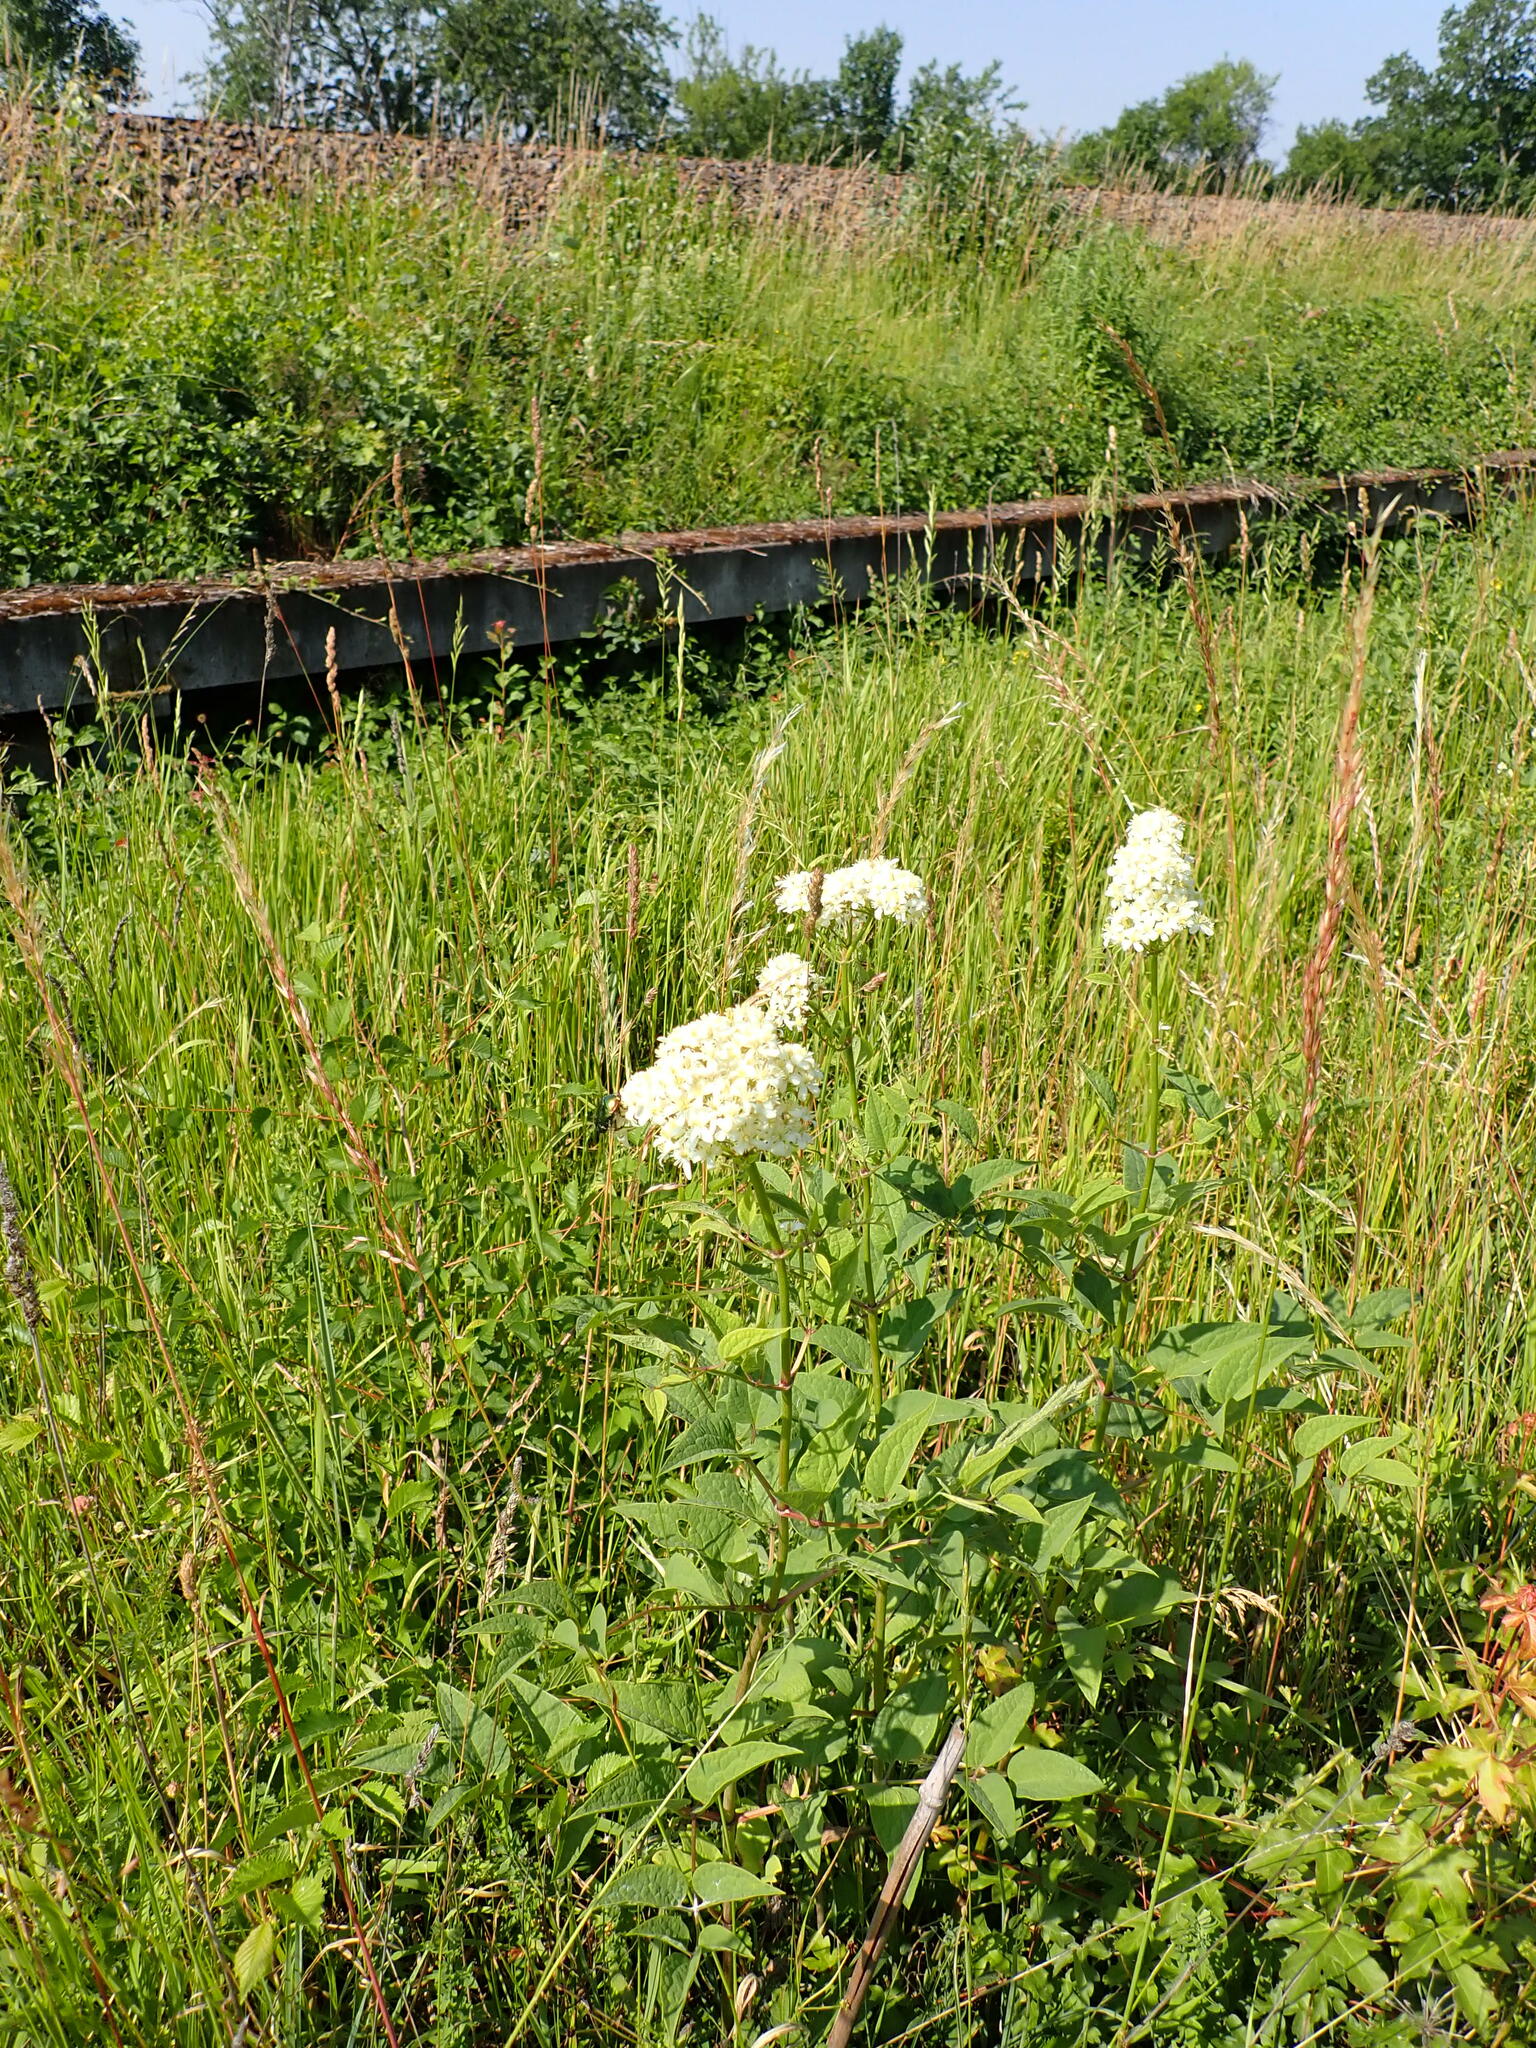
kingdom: Plantae
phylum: Tracheophyta
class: Magnoliopsida
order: Ranunculales
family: Ranunculaceae
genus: Clematis
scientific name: Clematis recta
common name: Ground clematis
